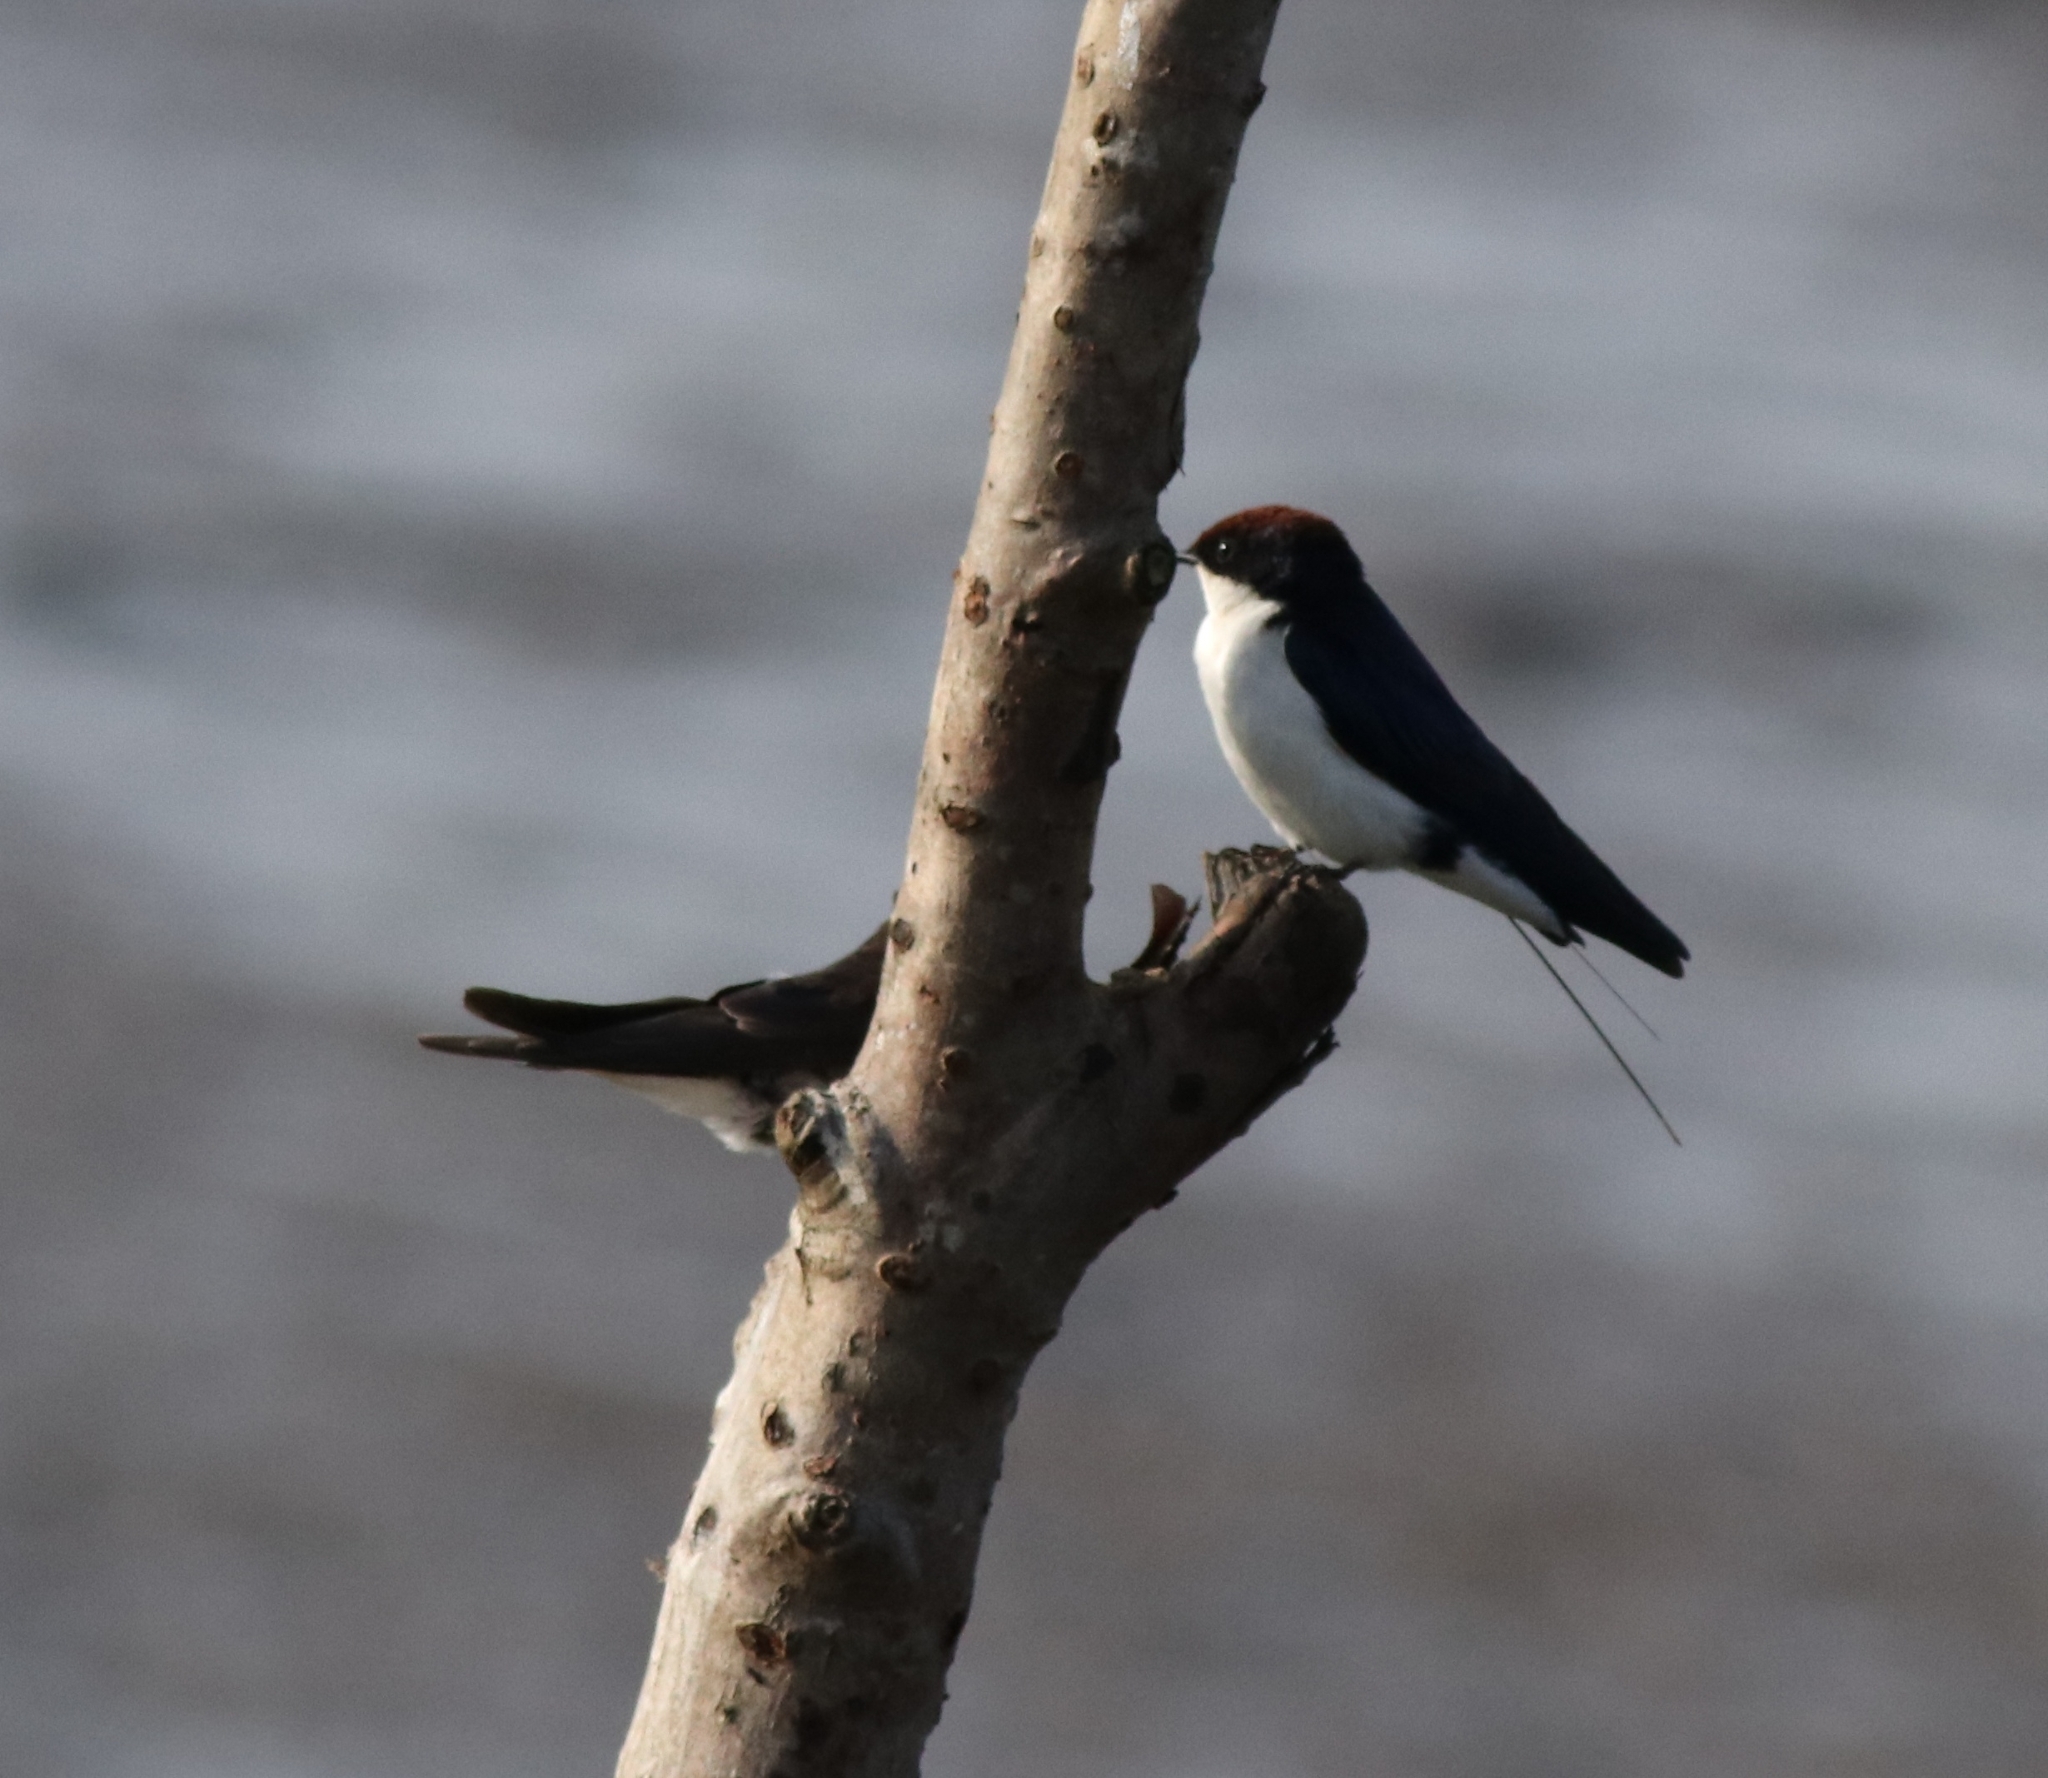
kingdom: Animalia
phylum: Chordata
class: Aves
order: Passeriformes
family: Hirundinidae
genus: Hirundo
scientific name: Hirundo smithii
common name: Wire-tailed swallow
